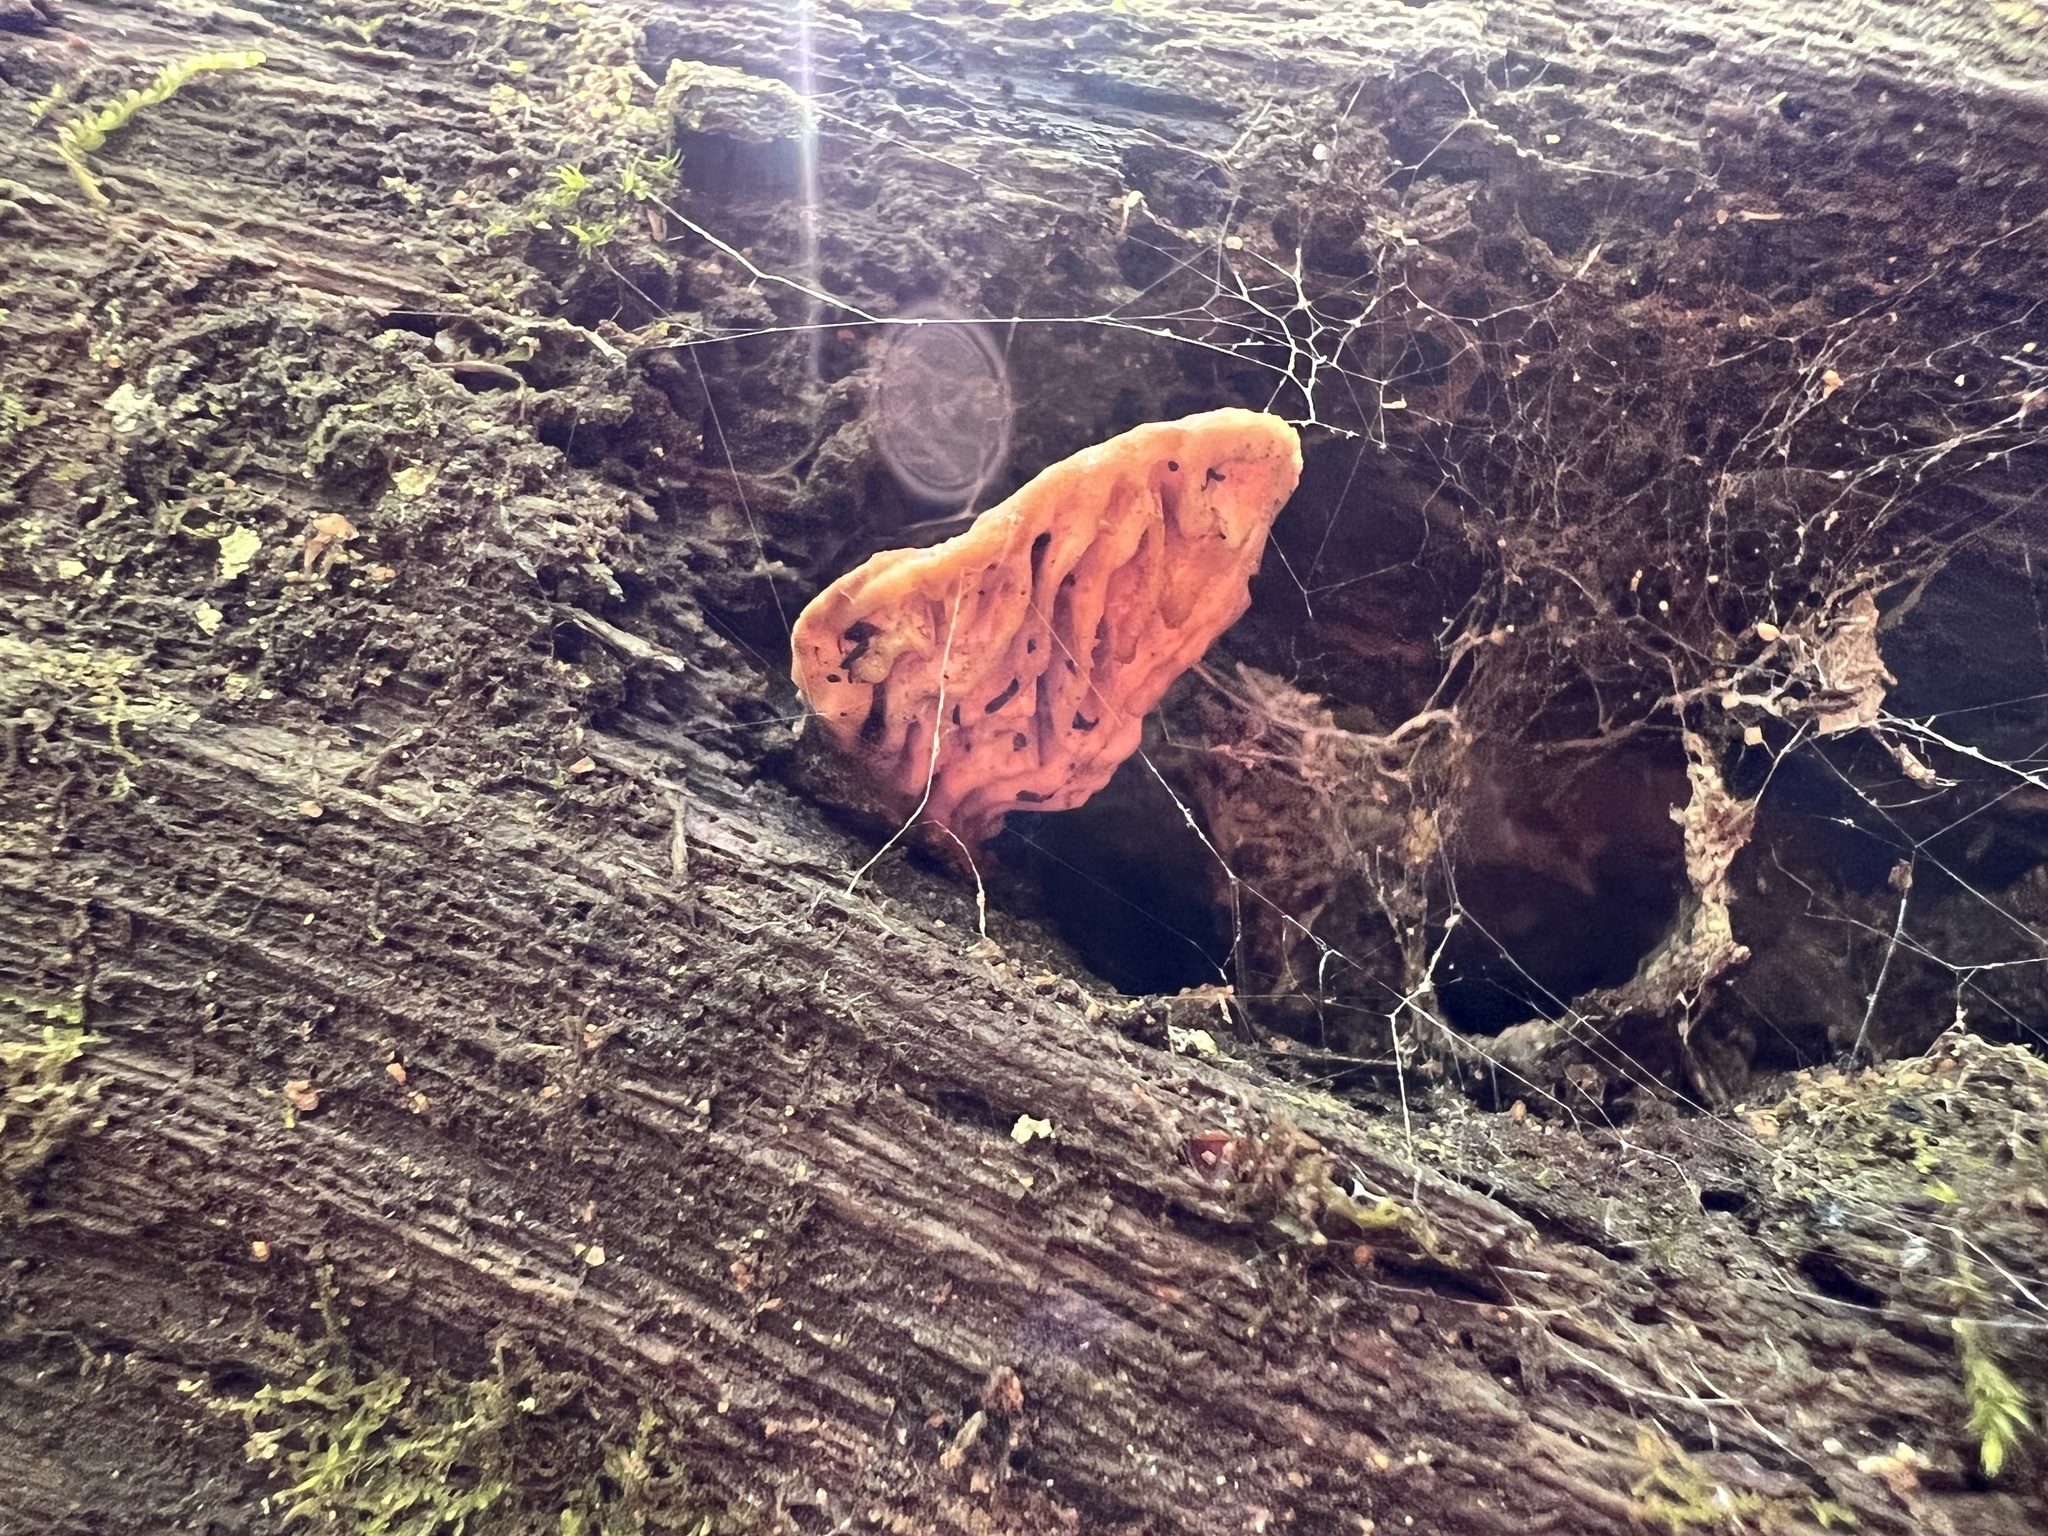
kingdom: Fungi
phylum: Basidiomycota
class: Agaricomycetes
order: Polyporales
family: Fomitopsidaceae
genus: Fomitopsis
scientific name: Fomitopsis
